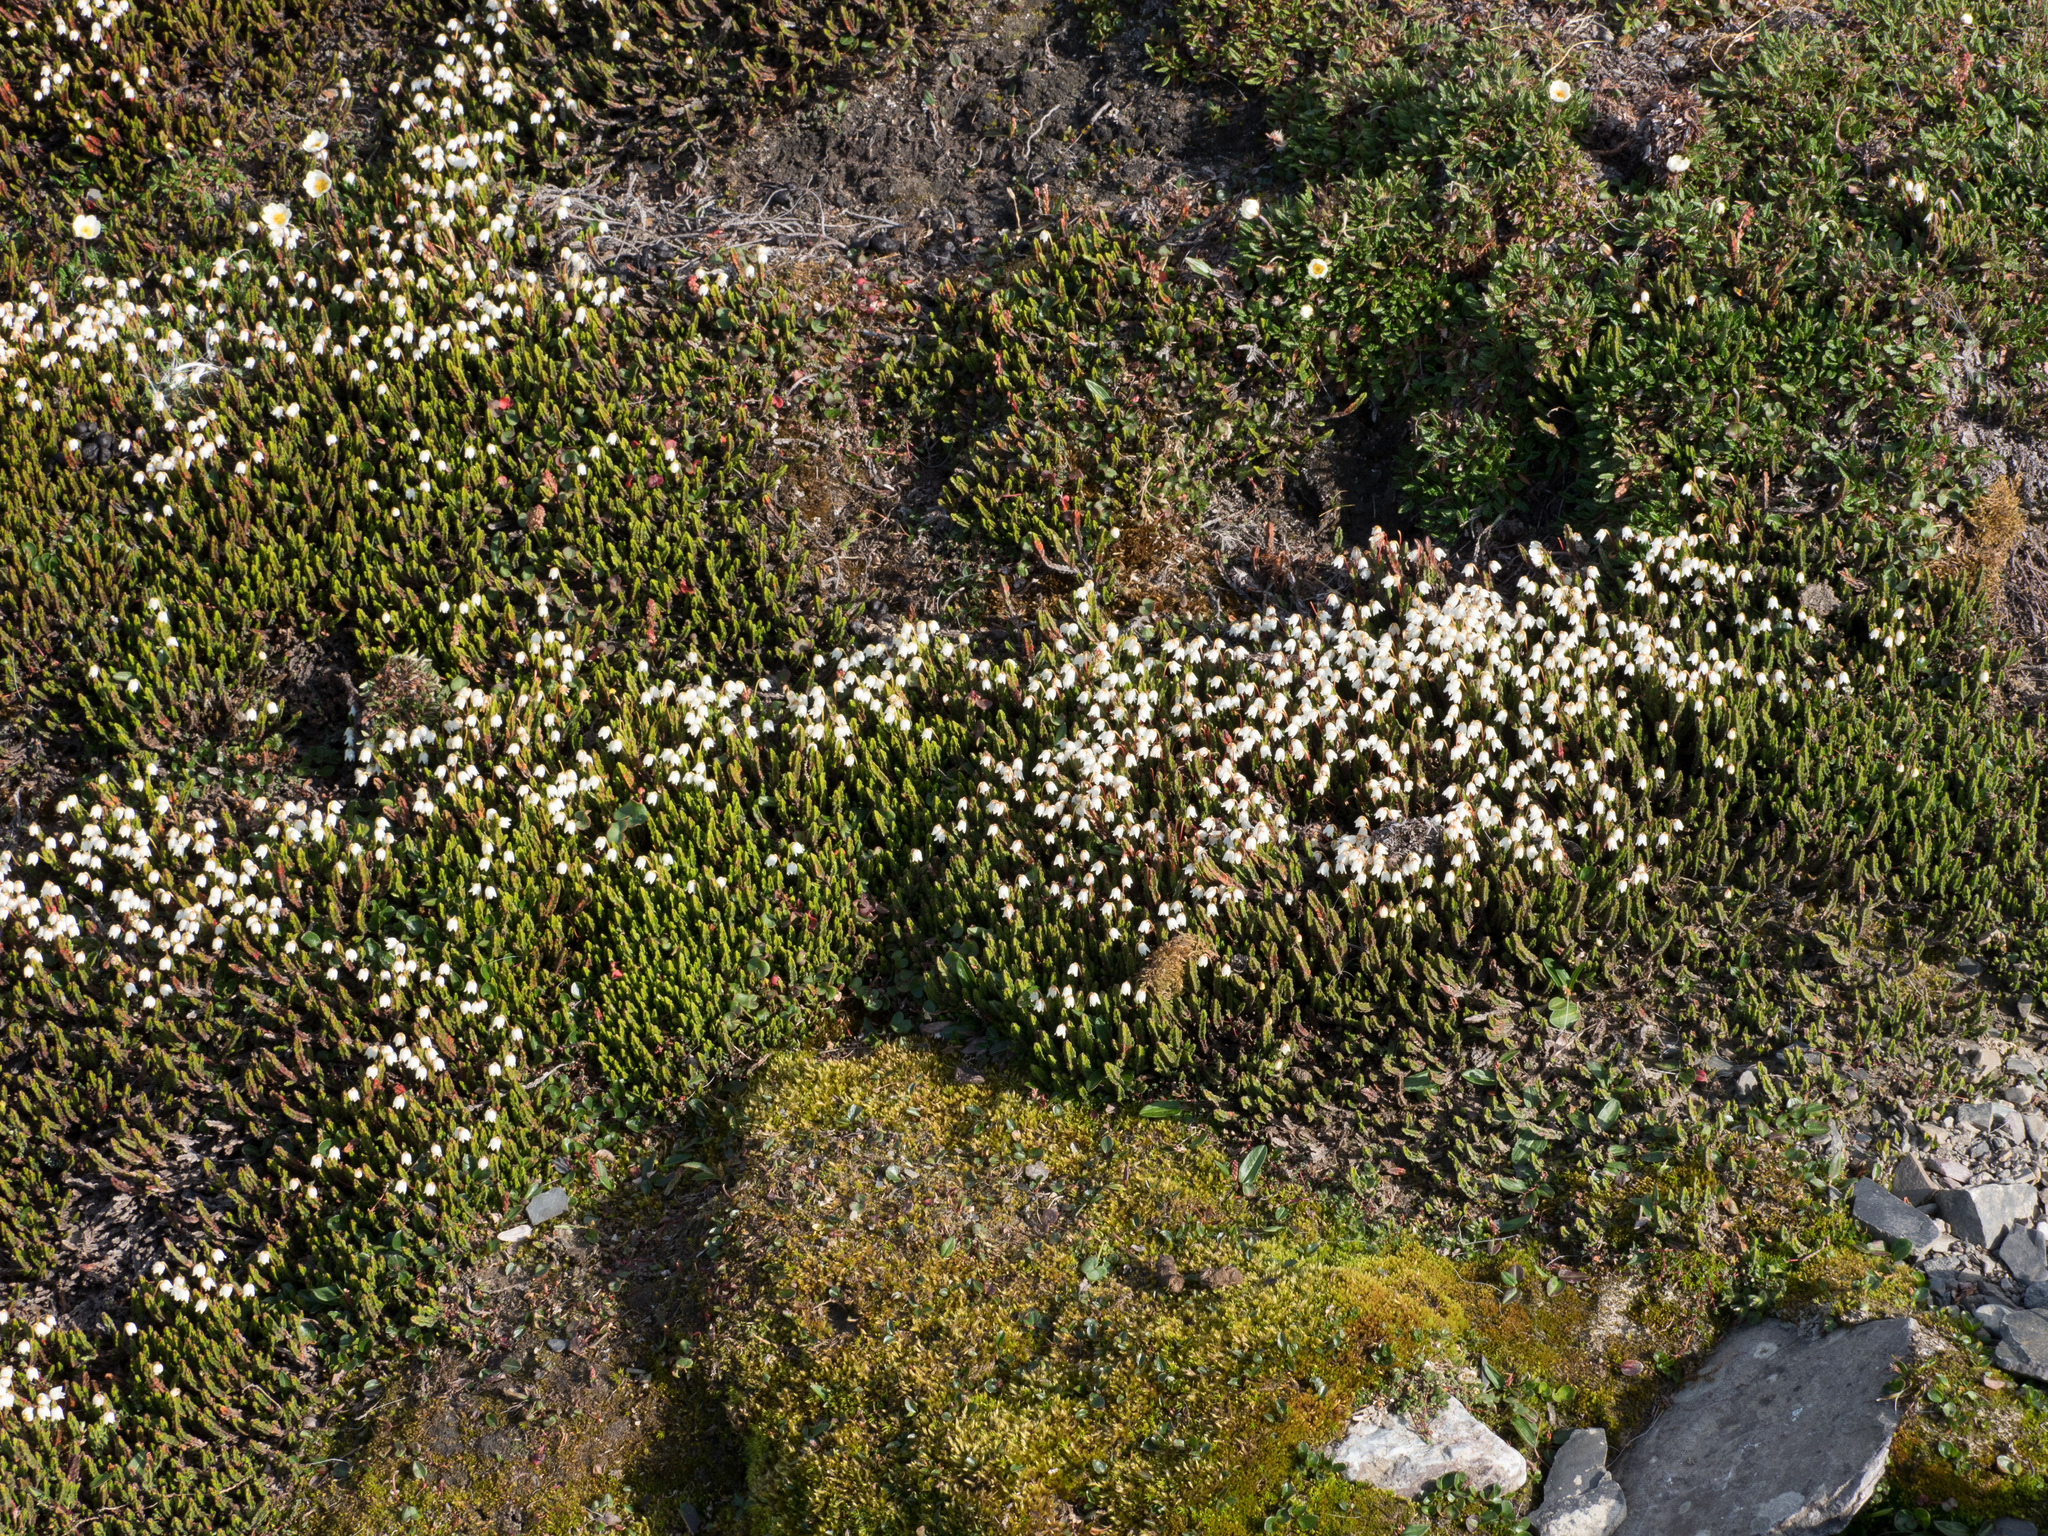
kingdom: Plantae
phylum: Tracheophyta
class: Magnoliopsida
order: Ericales
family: Ericaceae
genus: Cassiope
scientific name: Cassiope tetragona
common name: Arctic bell heather
